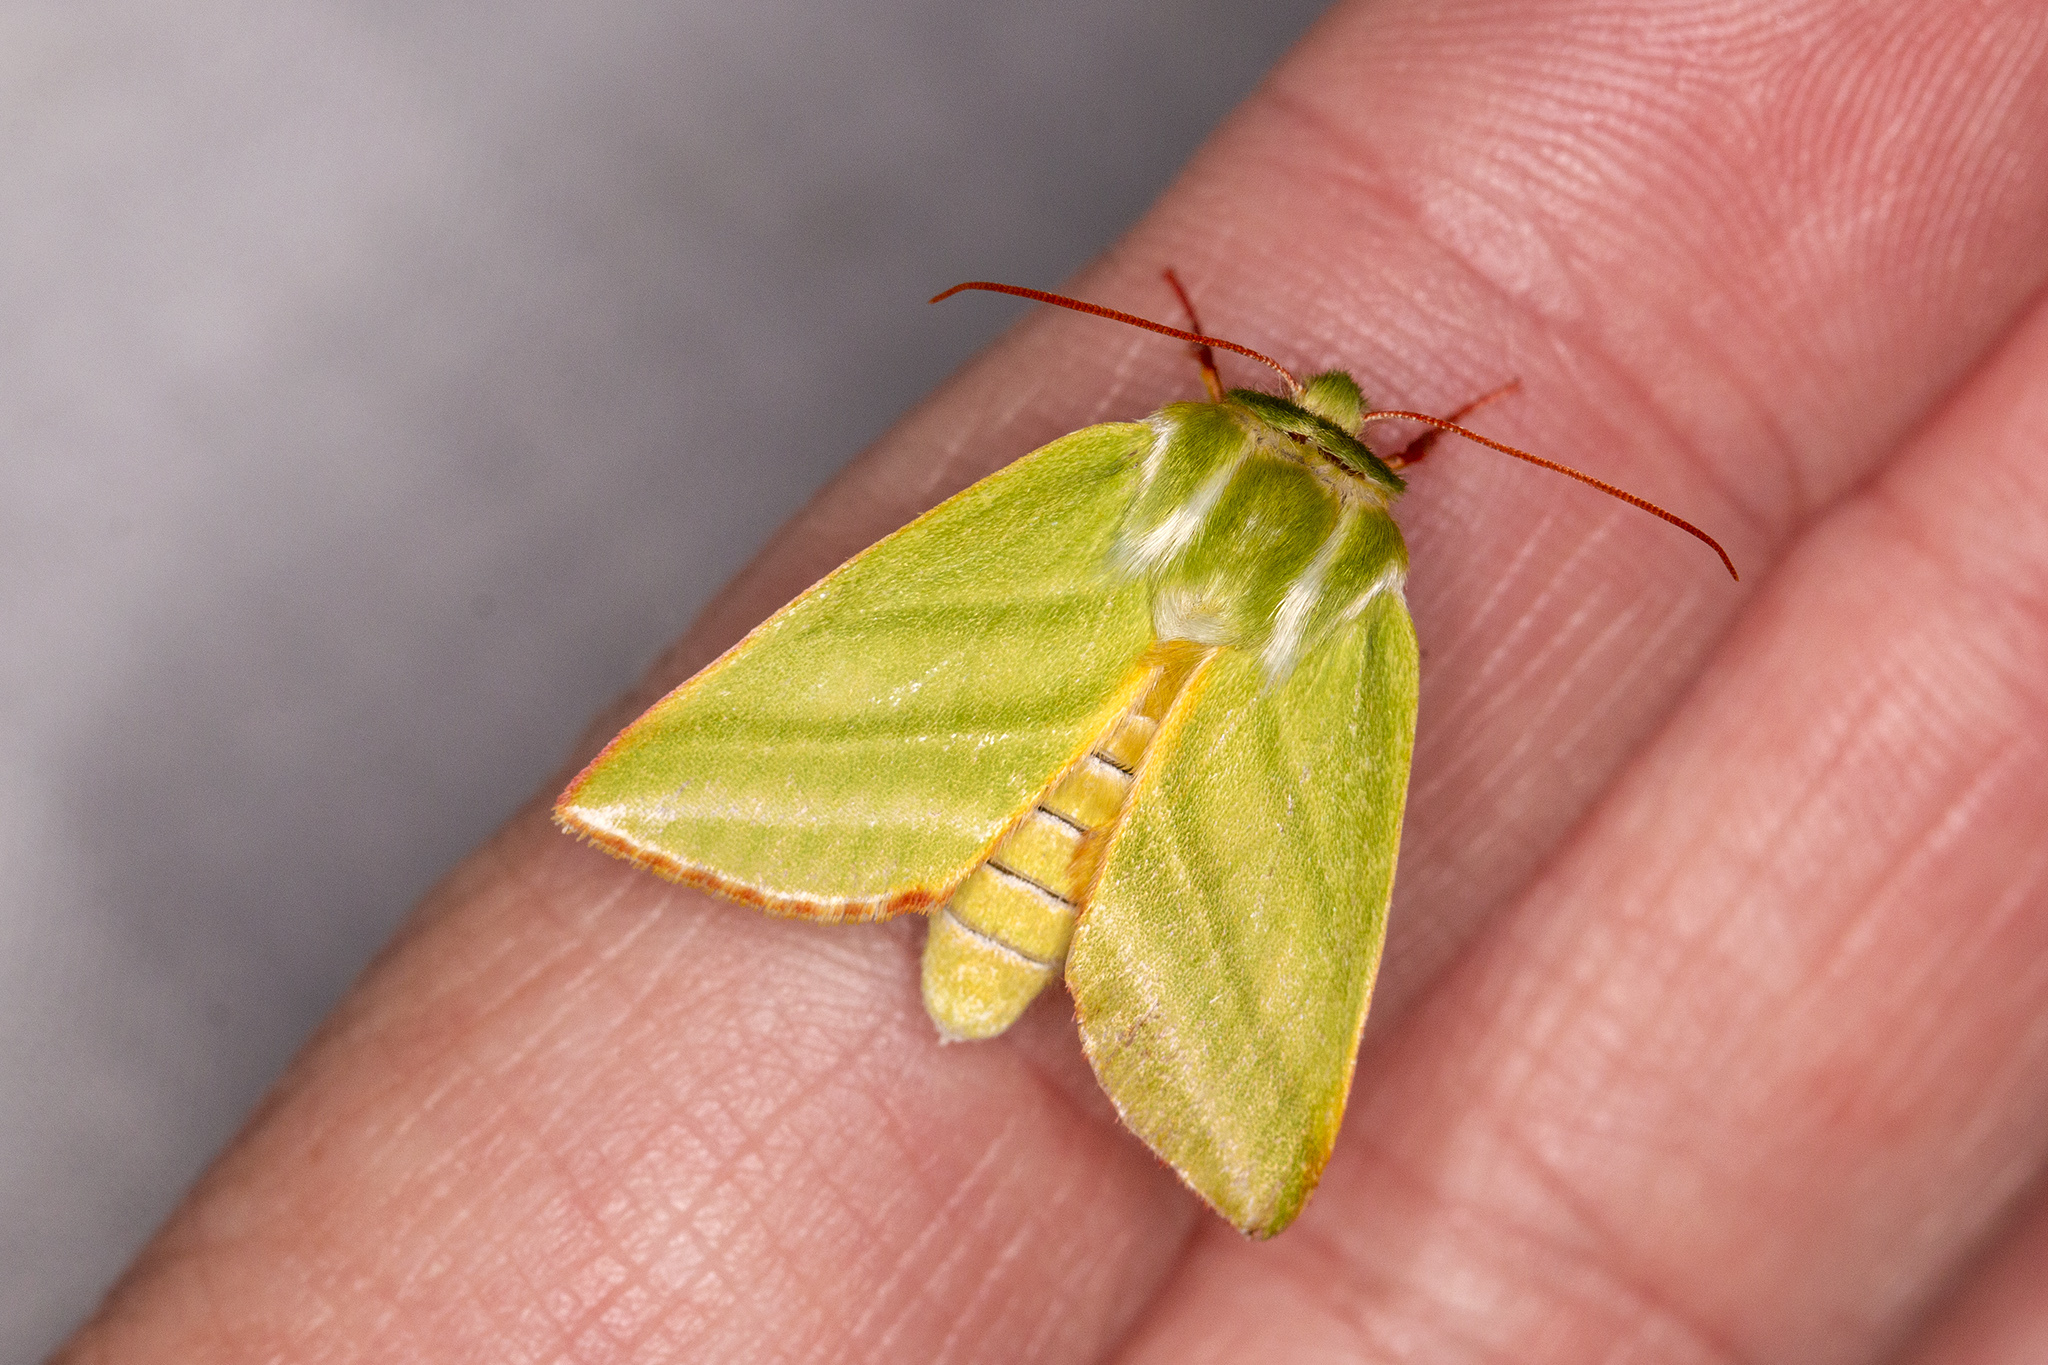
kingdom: Animalia
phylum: Arthropoda
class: Insecta
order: Lepidoptera
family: Nolidae
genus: Pseudoips
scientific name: Pseudoips prasinana
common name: Green silver-lines
